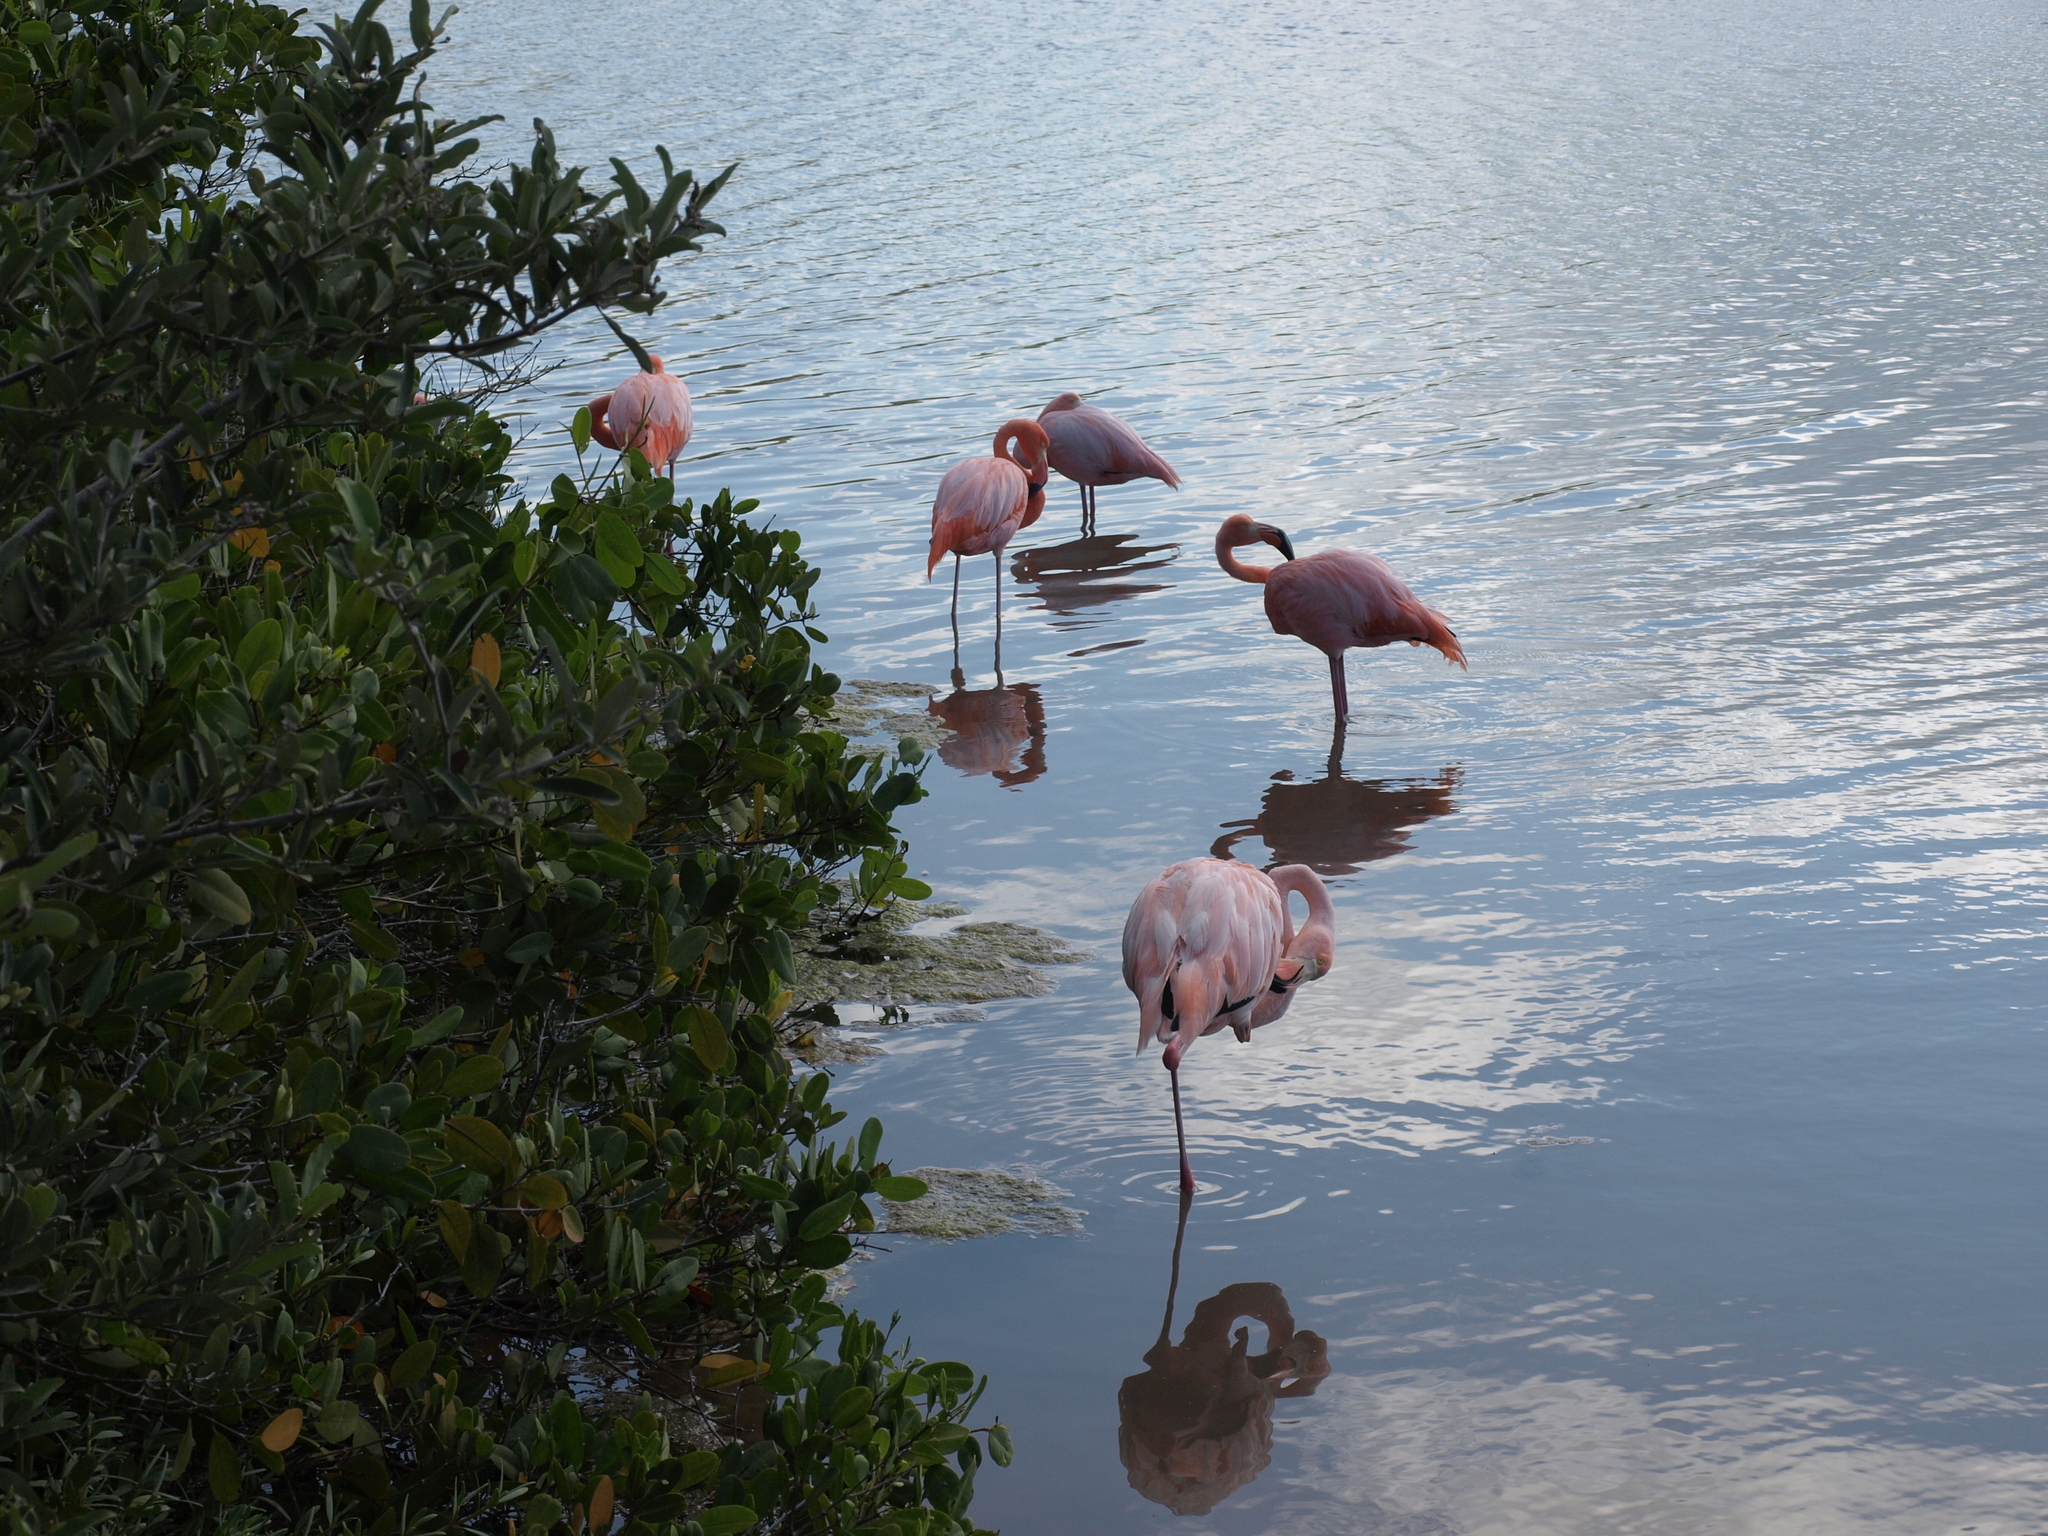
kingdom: Animalia
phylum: Chordata
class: Aves
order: Phoenicopteriformes
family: Phoenicopteridae
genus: Phoenicopterus
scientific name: Phoenicopterus ruber
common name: American flamingo
